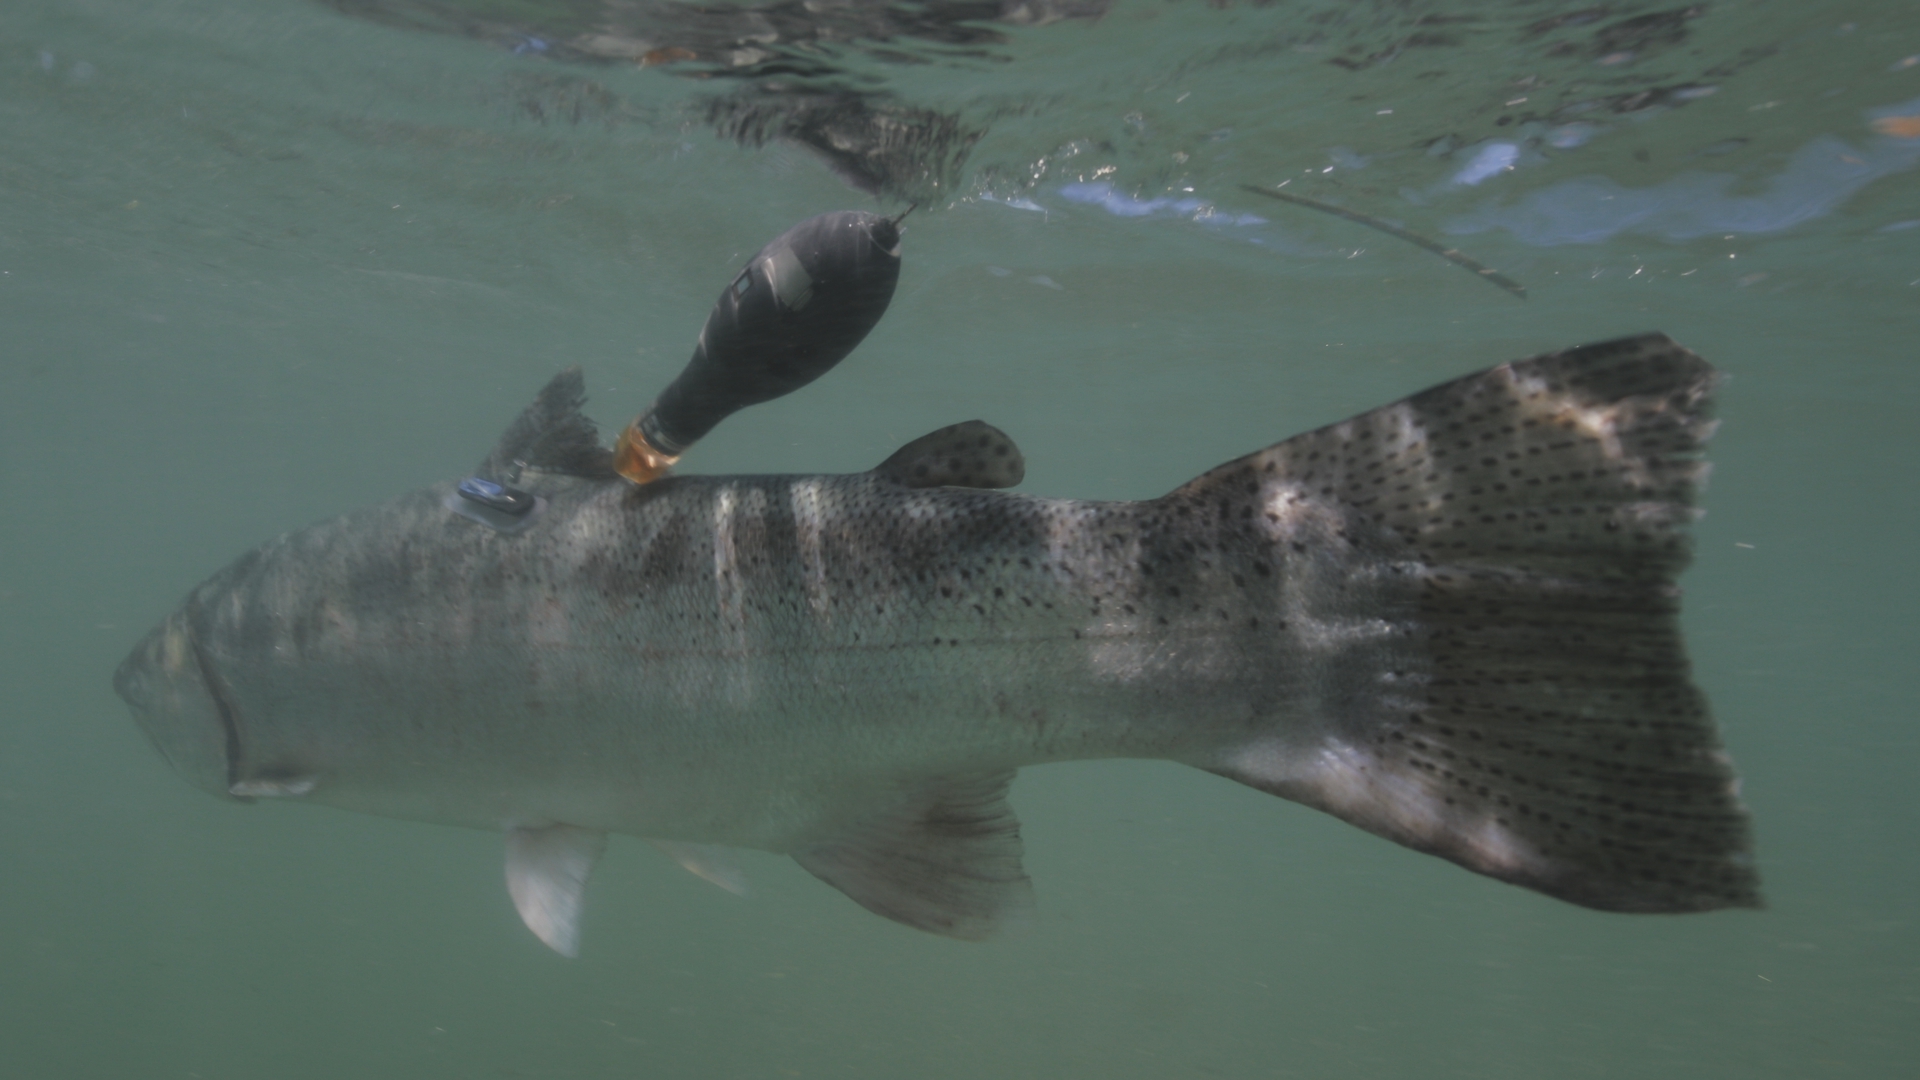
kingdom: Animalia
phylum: Chordata
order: Salmoniformes
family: Salmonidae
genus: Oncorhynchus
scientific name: Oncorhynchus mykiss
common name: Rainbow trout
